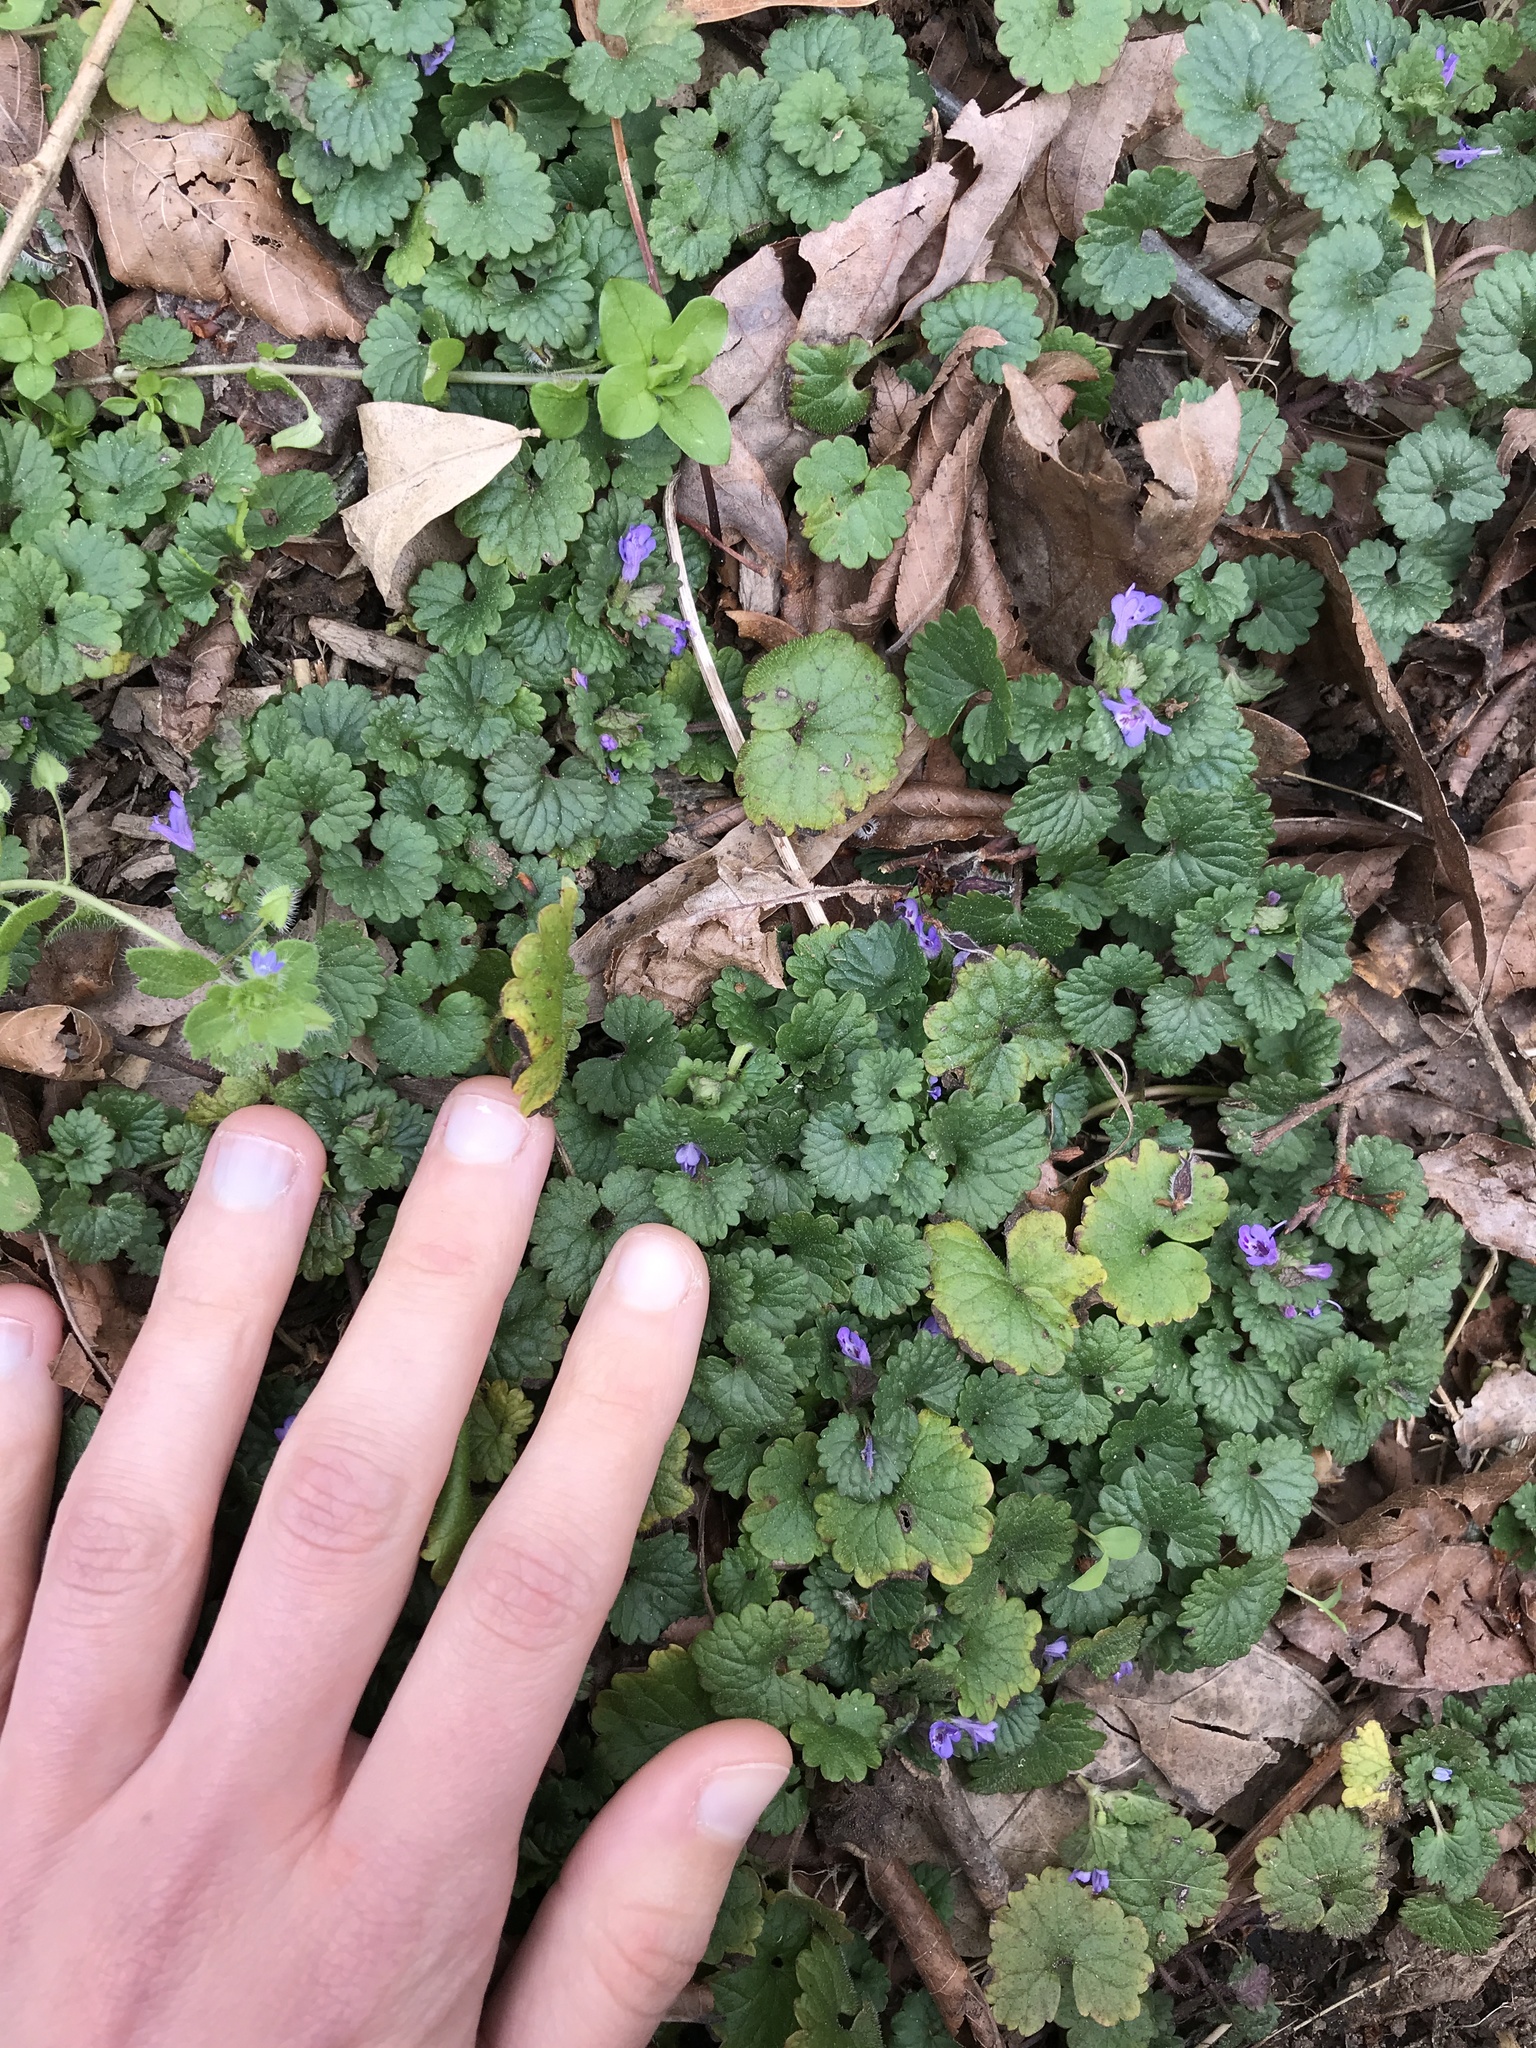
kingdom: Plantae
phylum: Tracheophyta
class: Magnoliopsida
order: Lamiales
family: Lamiaceae
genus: Glechoma
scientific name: Glechoma hederacea
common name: Ground ivy
